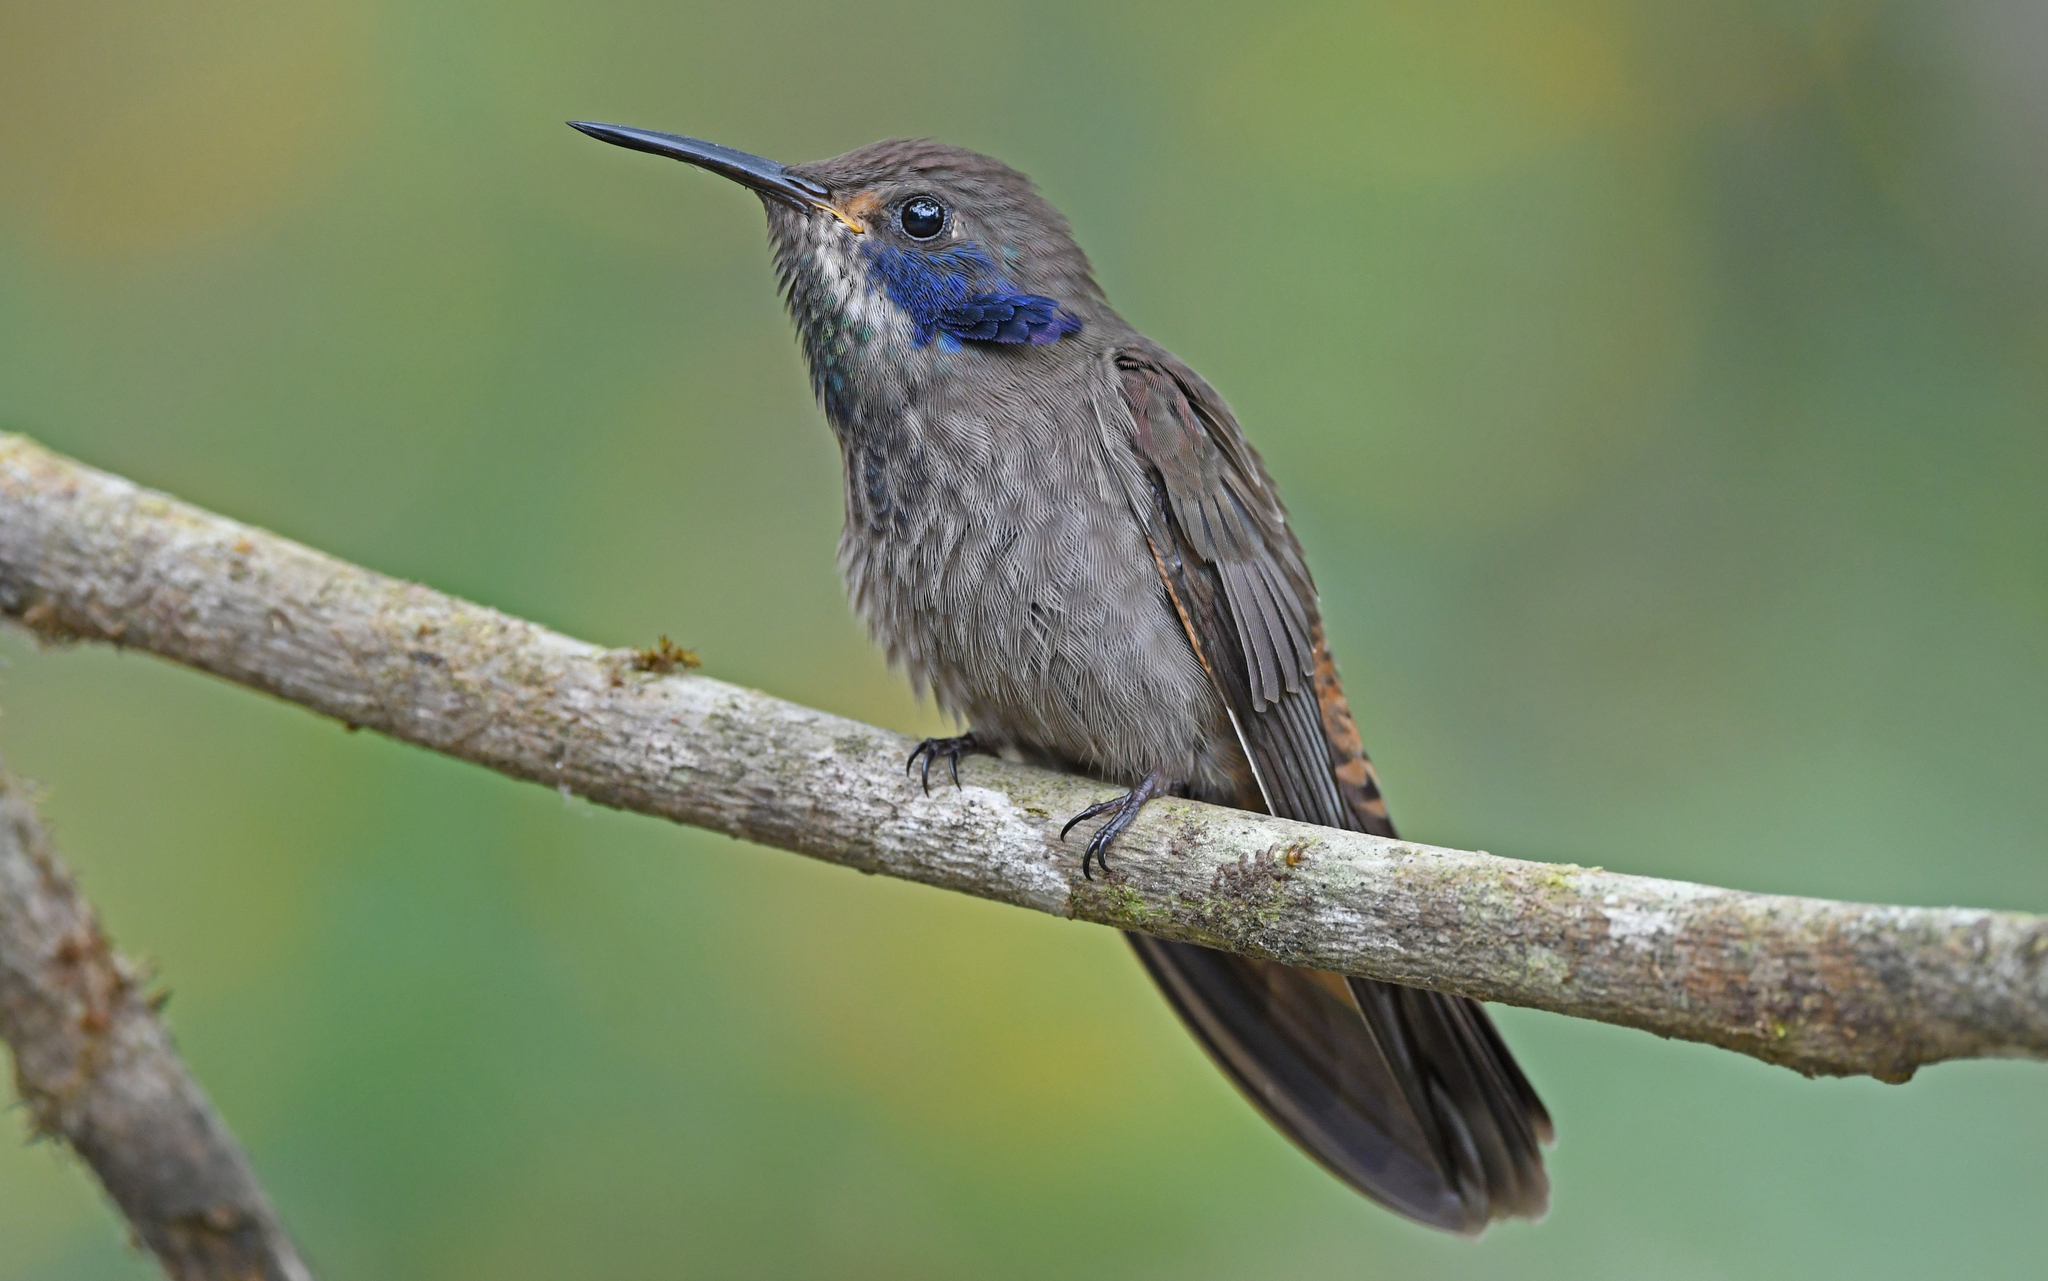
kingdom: Animalia
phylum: Chordata
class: Aves
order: Apodiformes
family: Trochilidae
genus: Colibri
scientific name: Colibri delphinae
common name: Brown violetear
